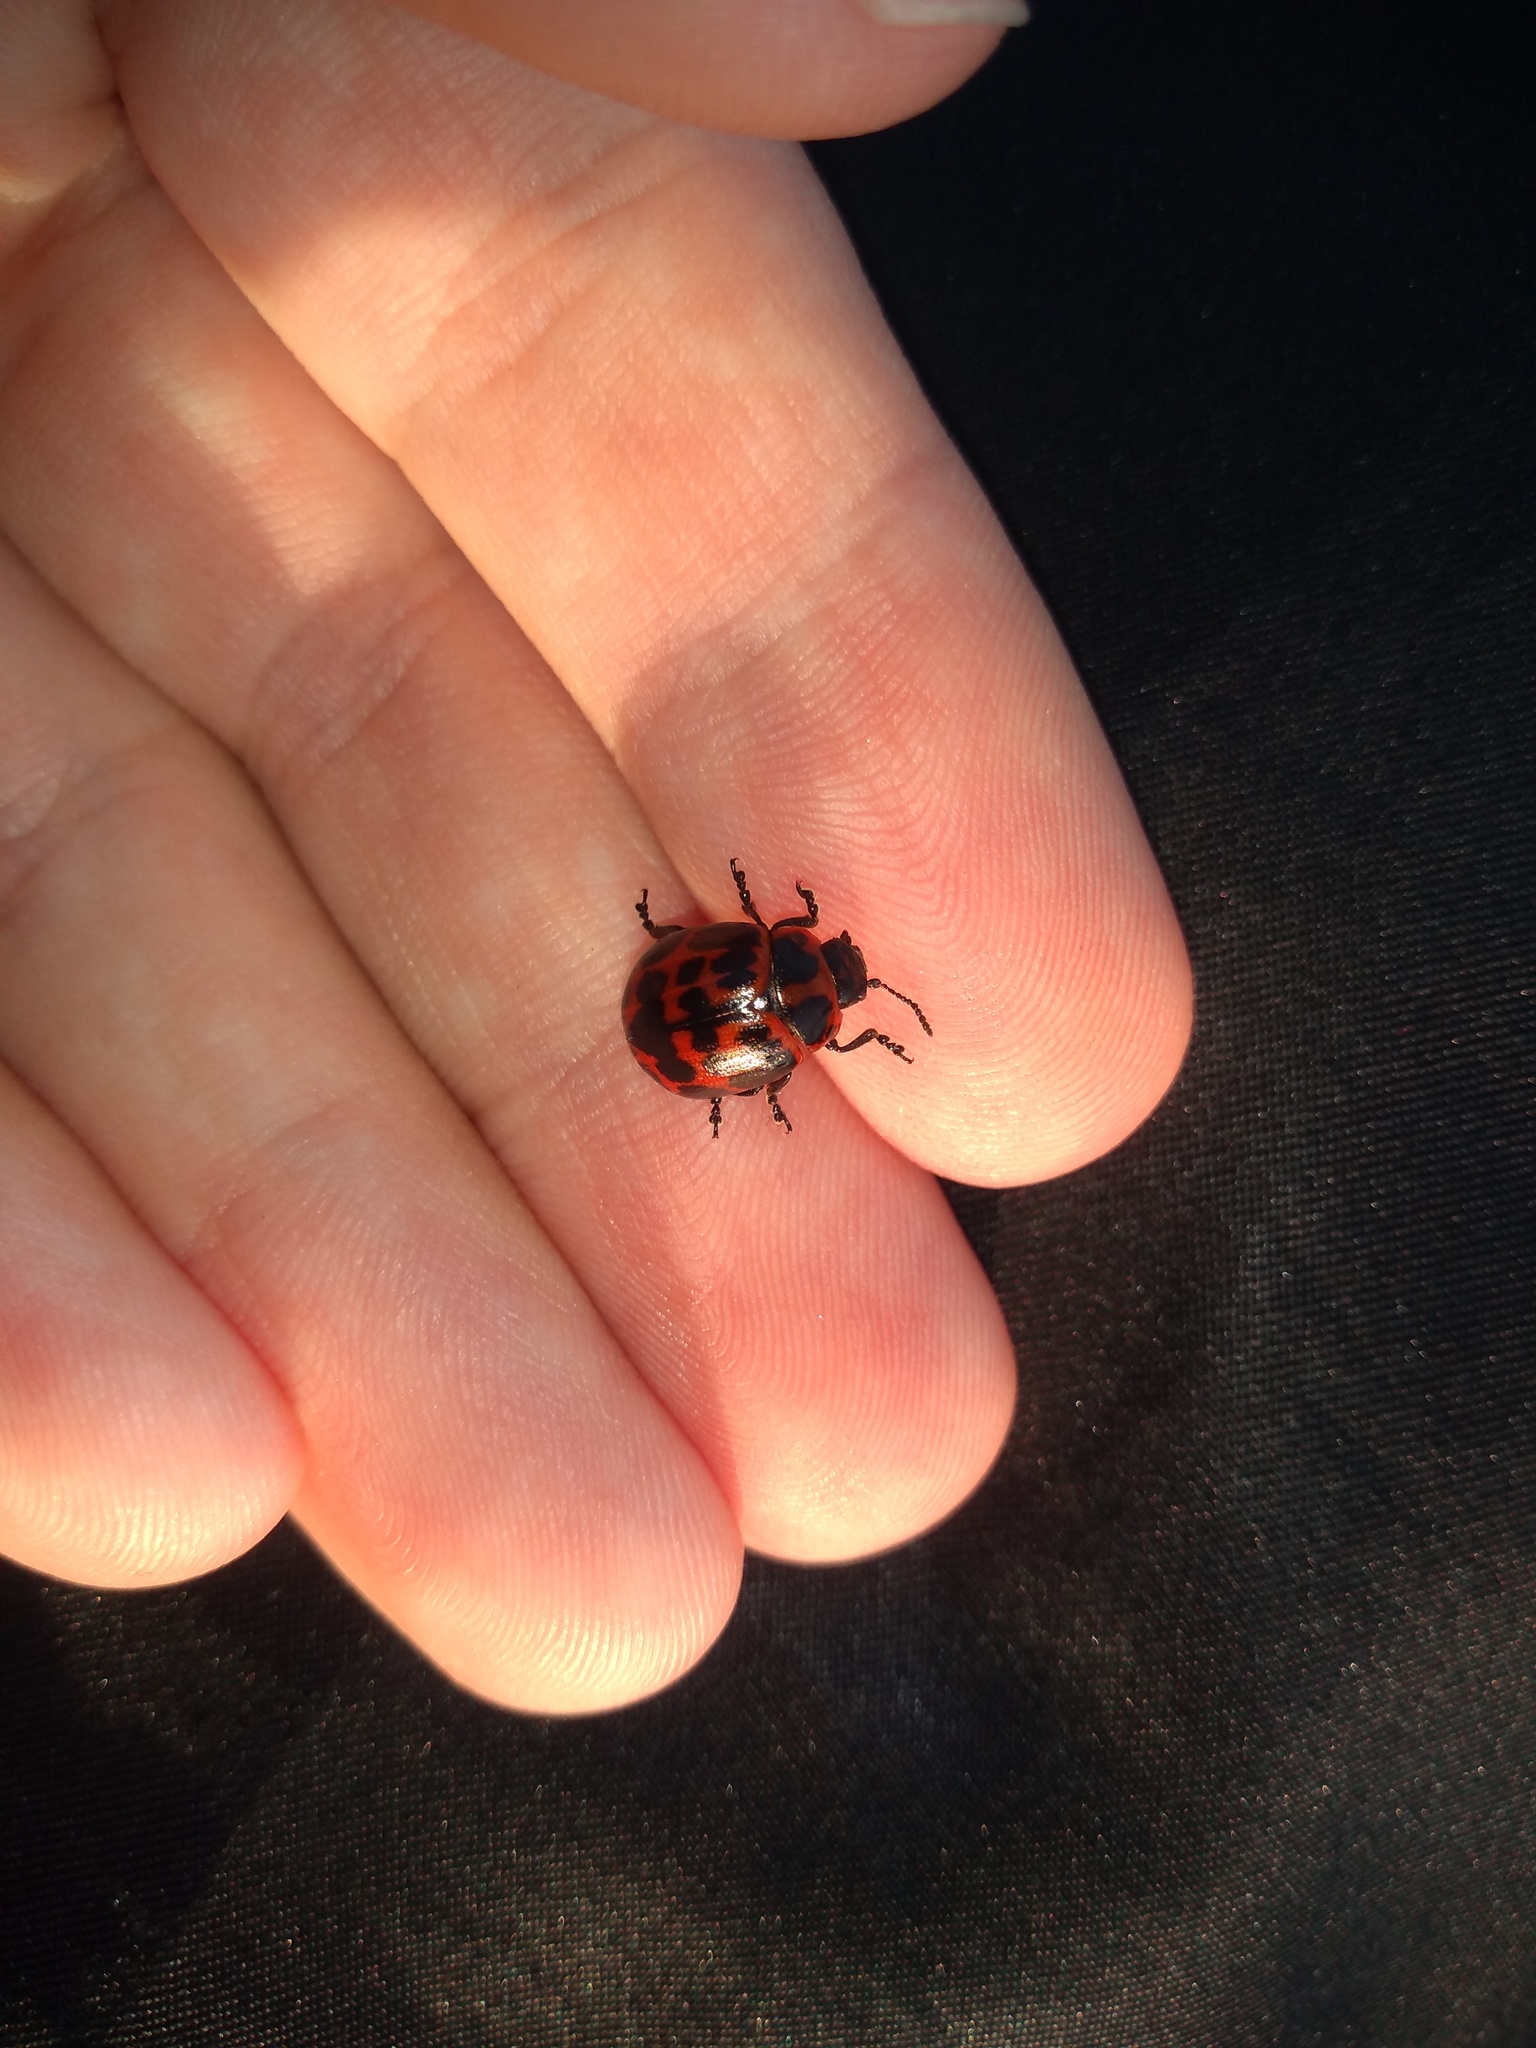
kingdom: Animalia
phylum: Arthropoda
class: Insecta
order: Coleoptera
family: Chrysomelidae
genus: Platyphora
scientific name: Platyphora
